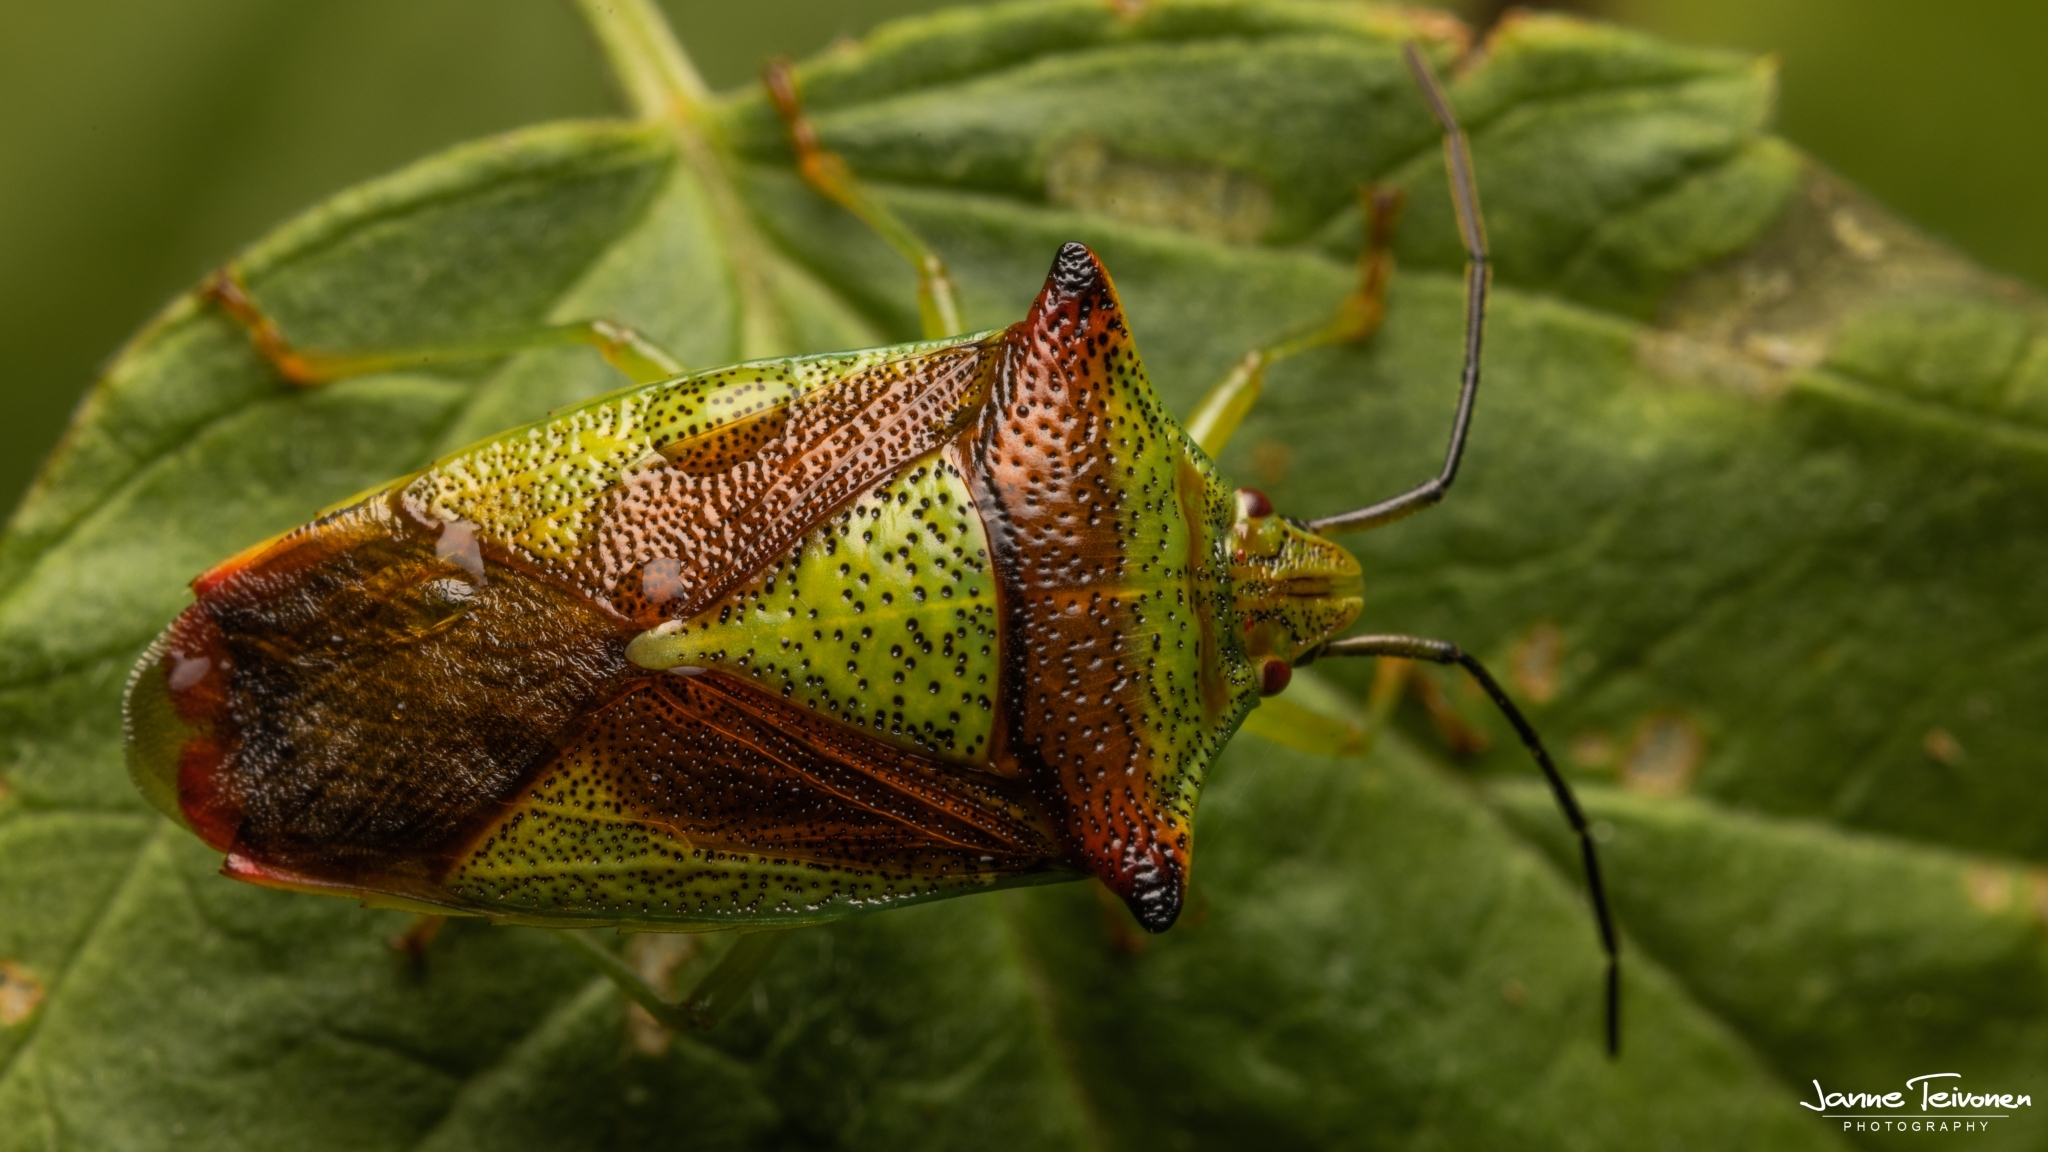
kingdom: Animalia
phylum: Arthropoda
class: Insecta
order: Hemiptera
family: Acanthosomatidae
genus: Acanthosoma
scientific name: Acanthosoma haemorrhoidale
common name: Hawthorn shieldbug
